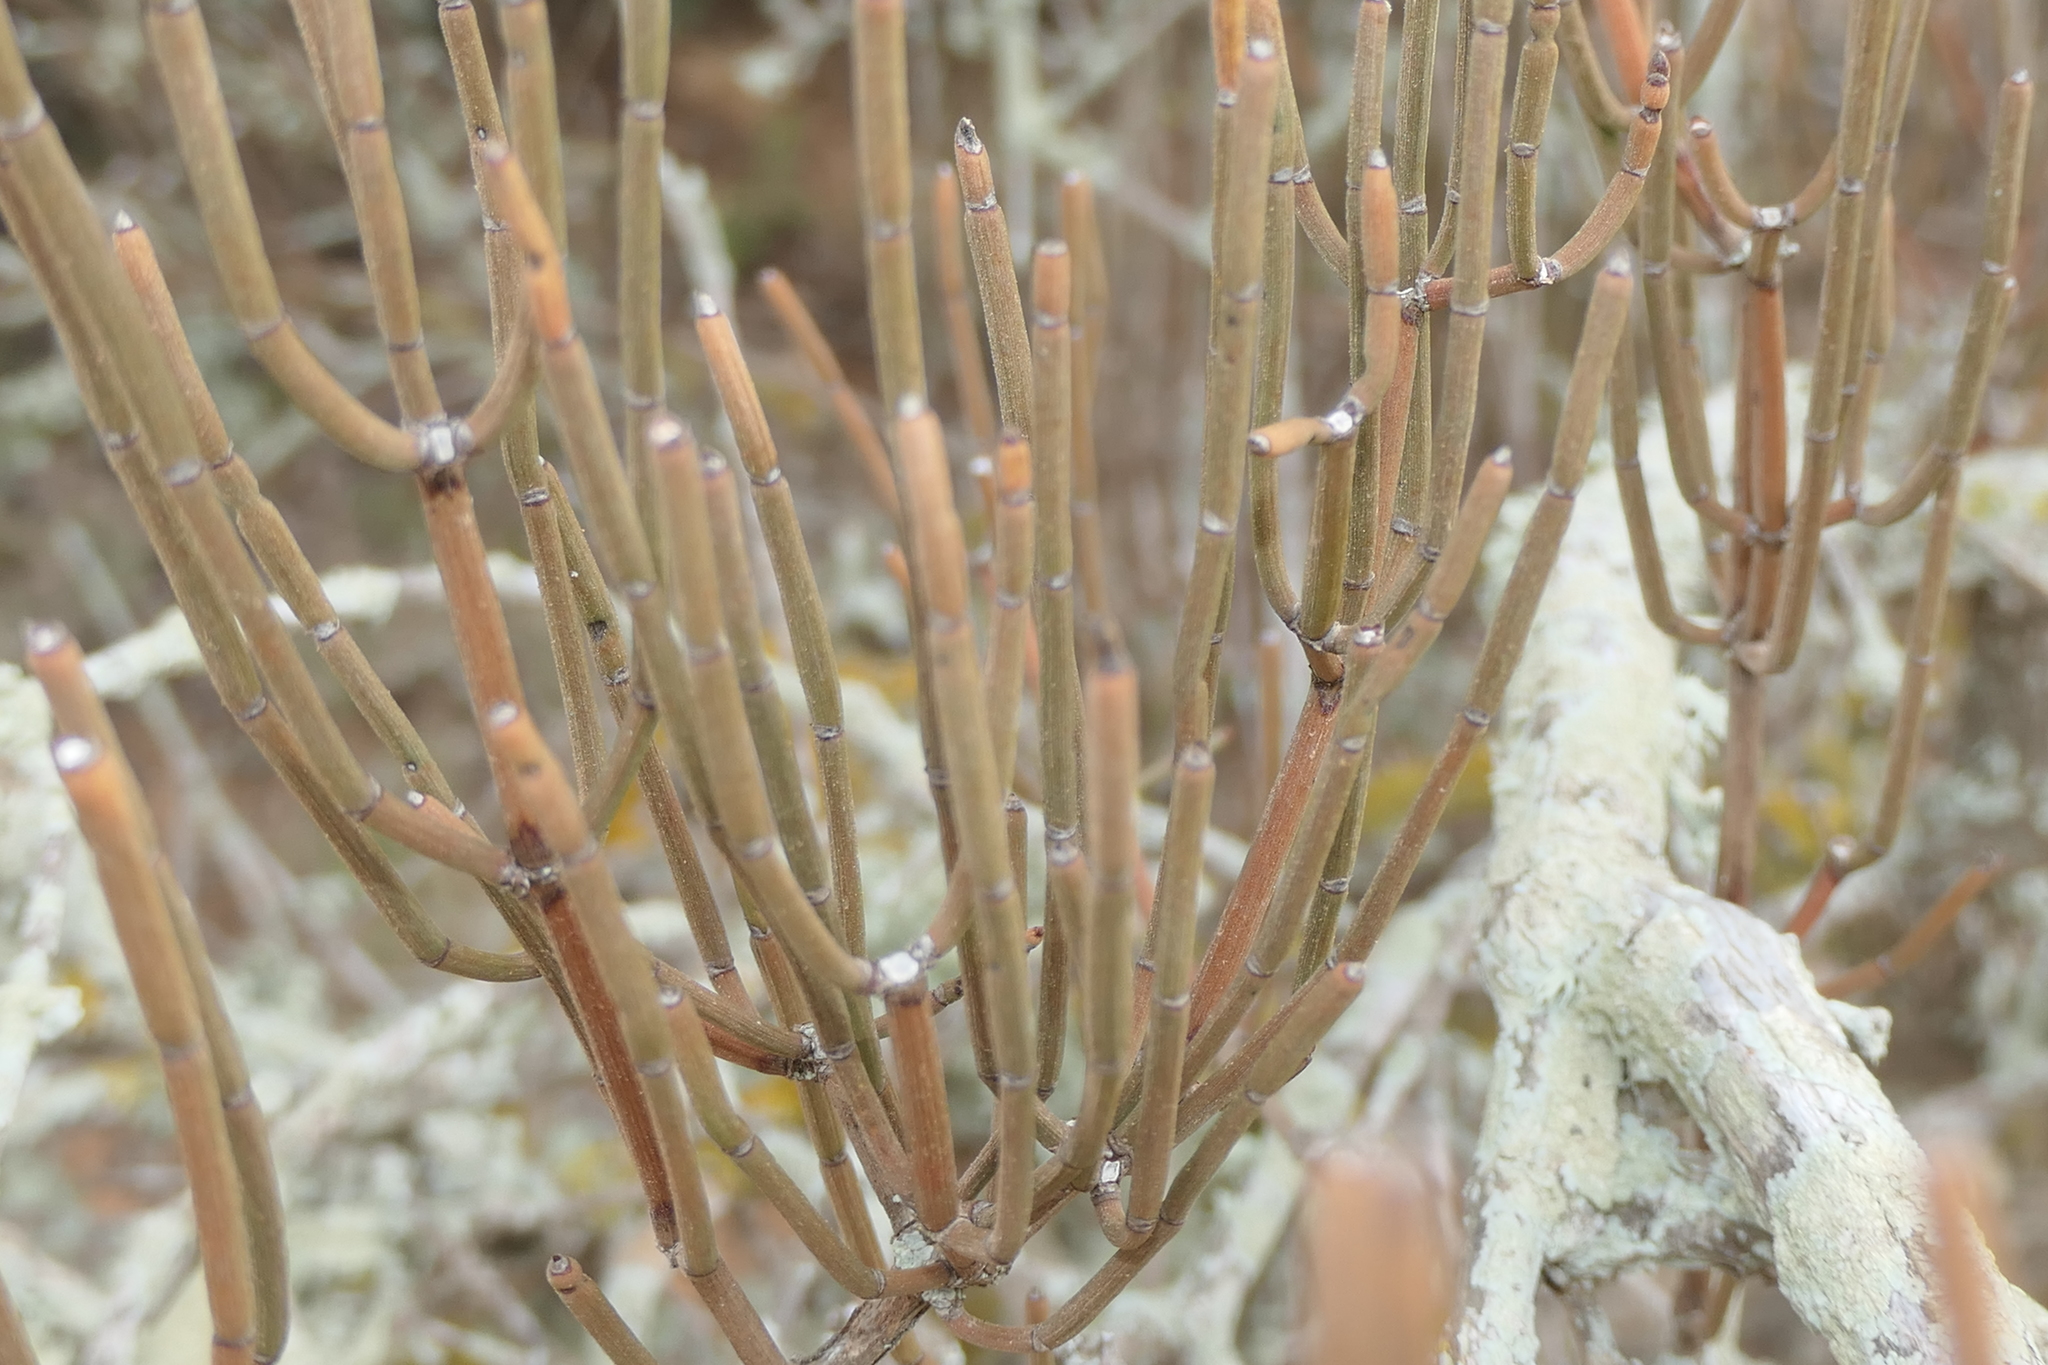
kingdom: Plantae
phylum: Tracheophyta
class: Gnetopsida
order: Ephedrales
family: Ephedraceae
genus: Ephedra
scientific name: Ephedra fragilis
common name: Joint pine
